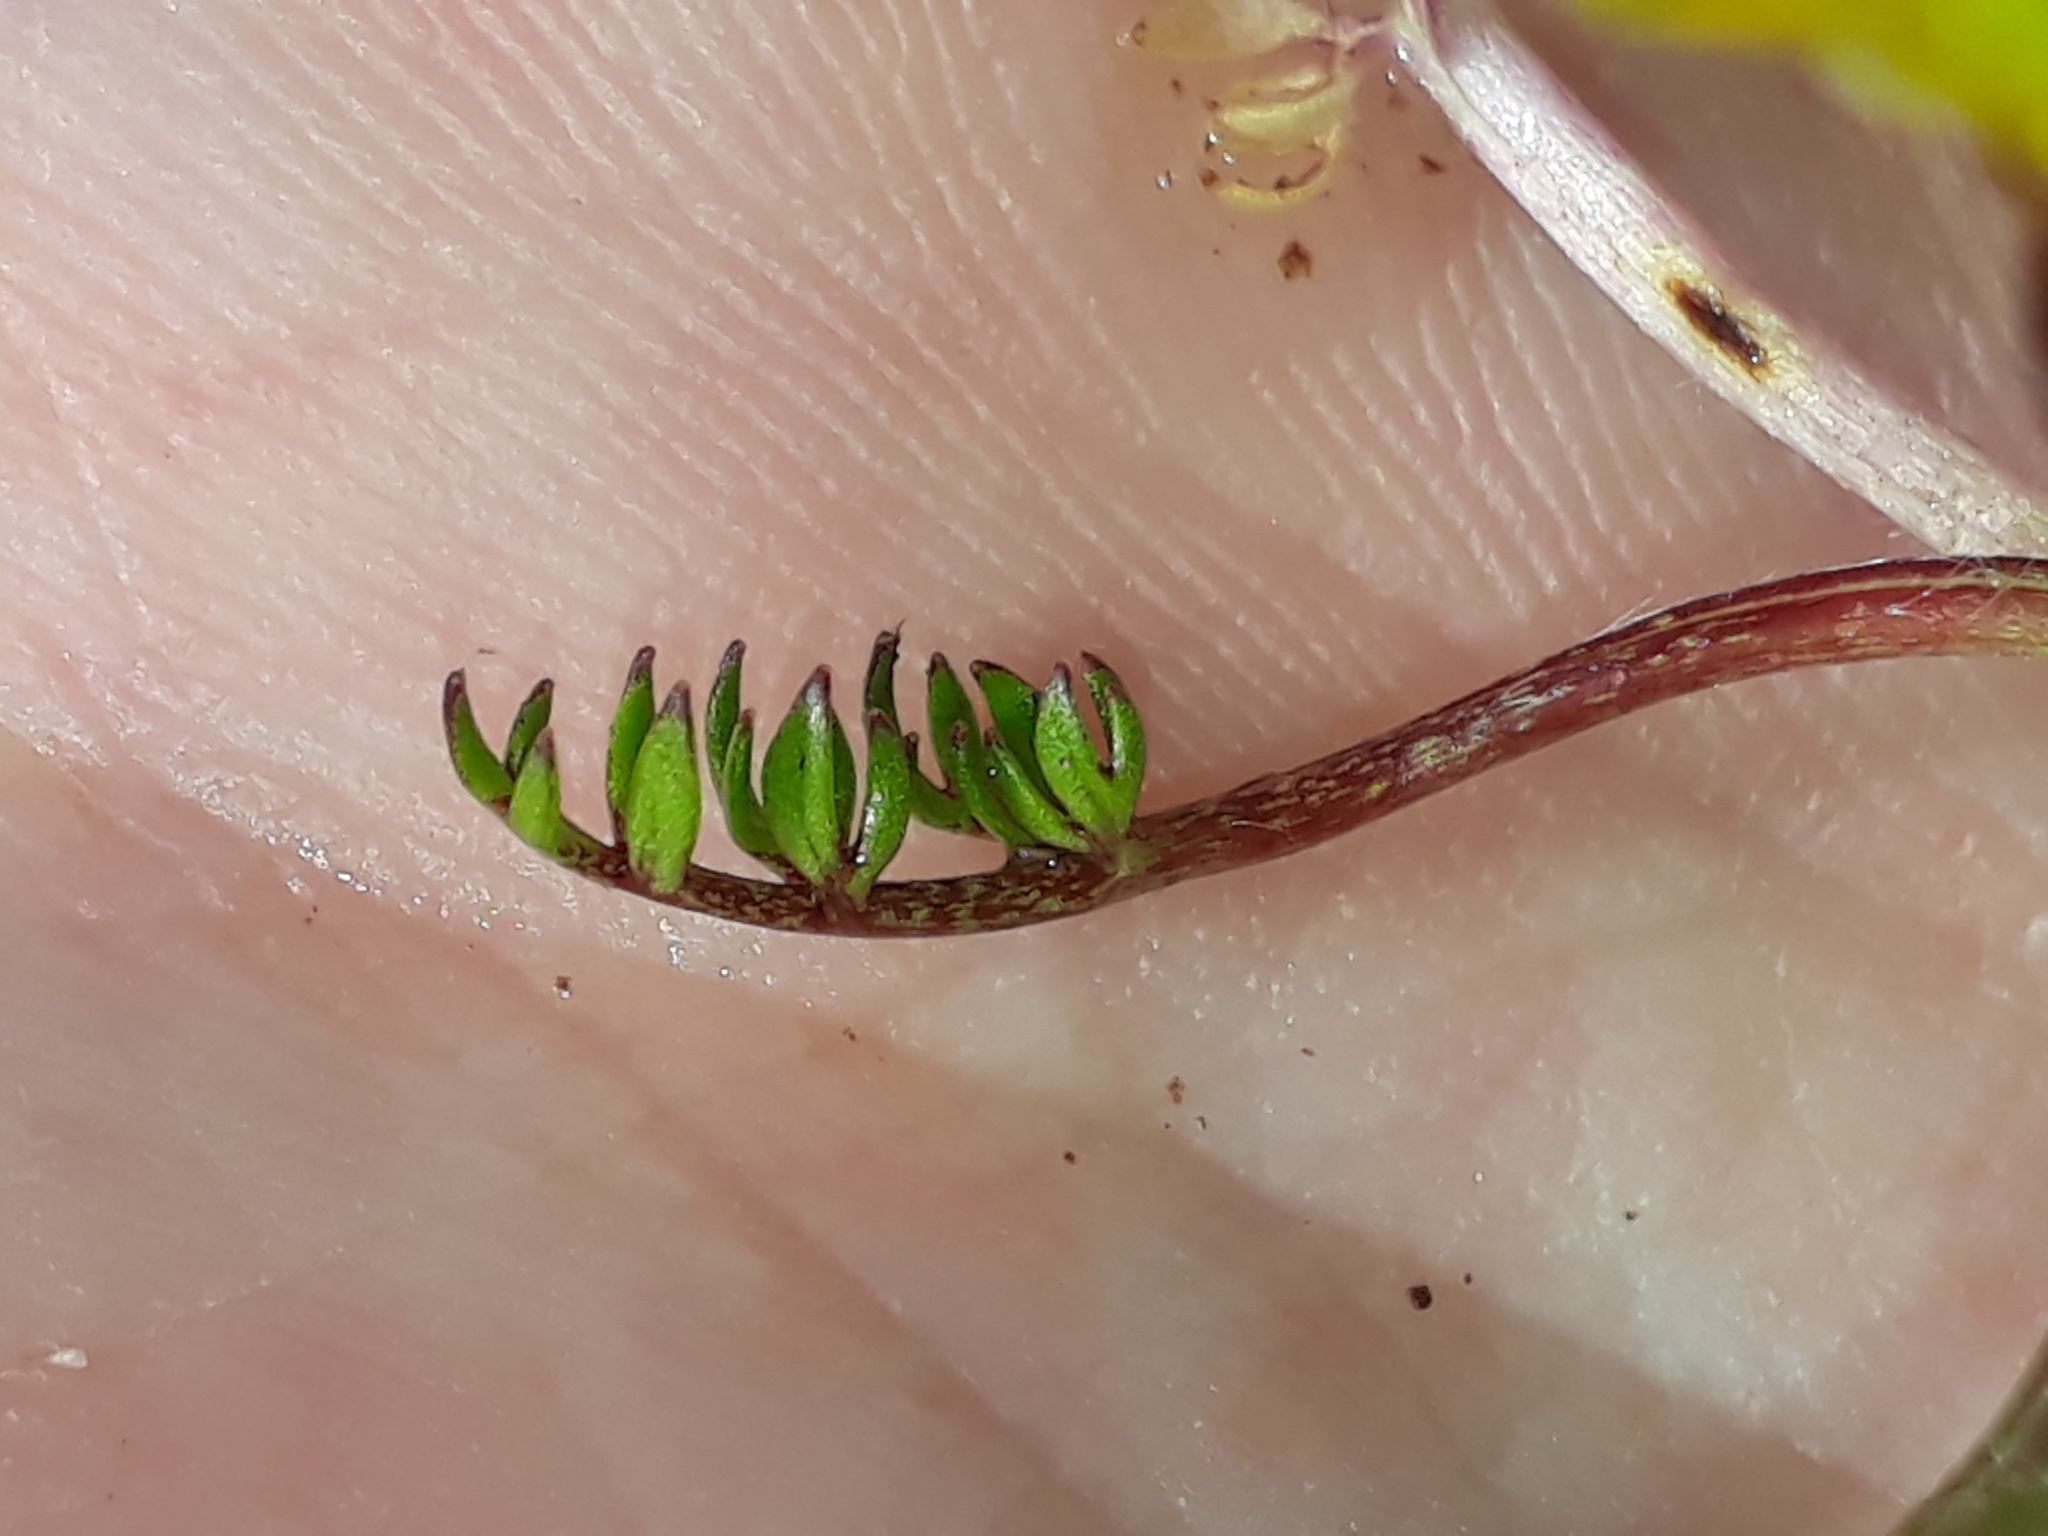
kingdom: Plantae
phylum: Tracheophyta
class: Magnoliopsida
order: Ranunculales
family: Ranunculaceae
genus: Ranunculus
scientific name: Ranunculus gracilipes
